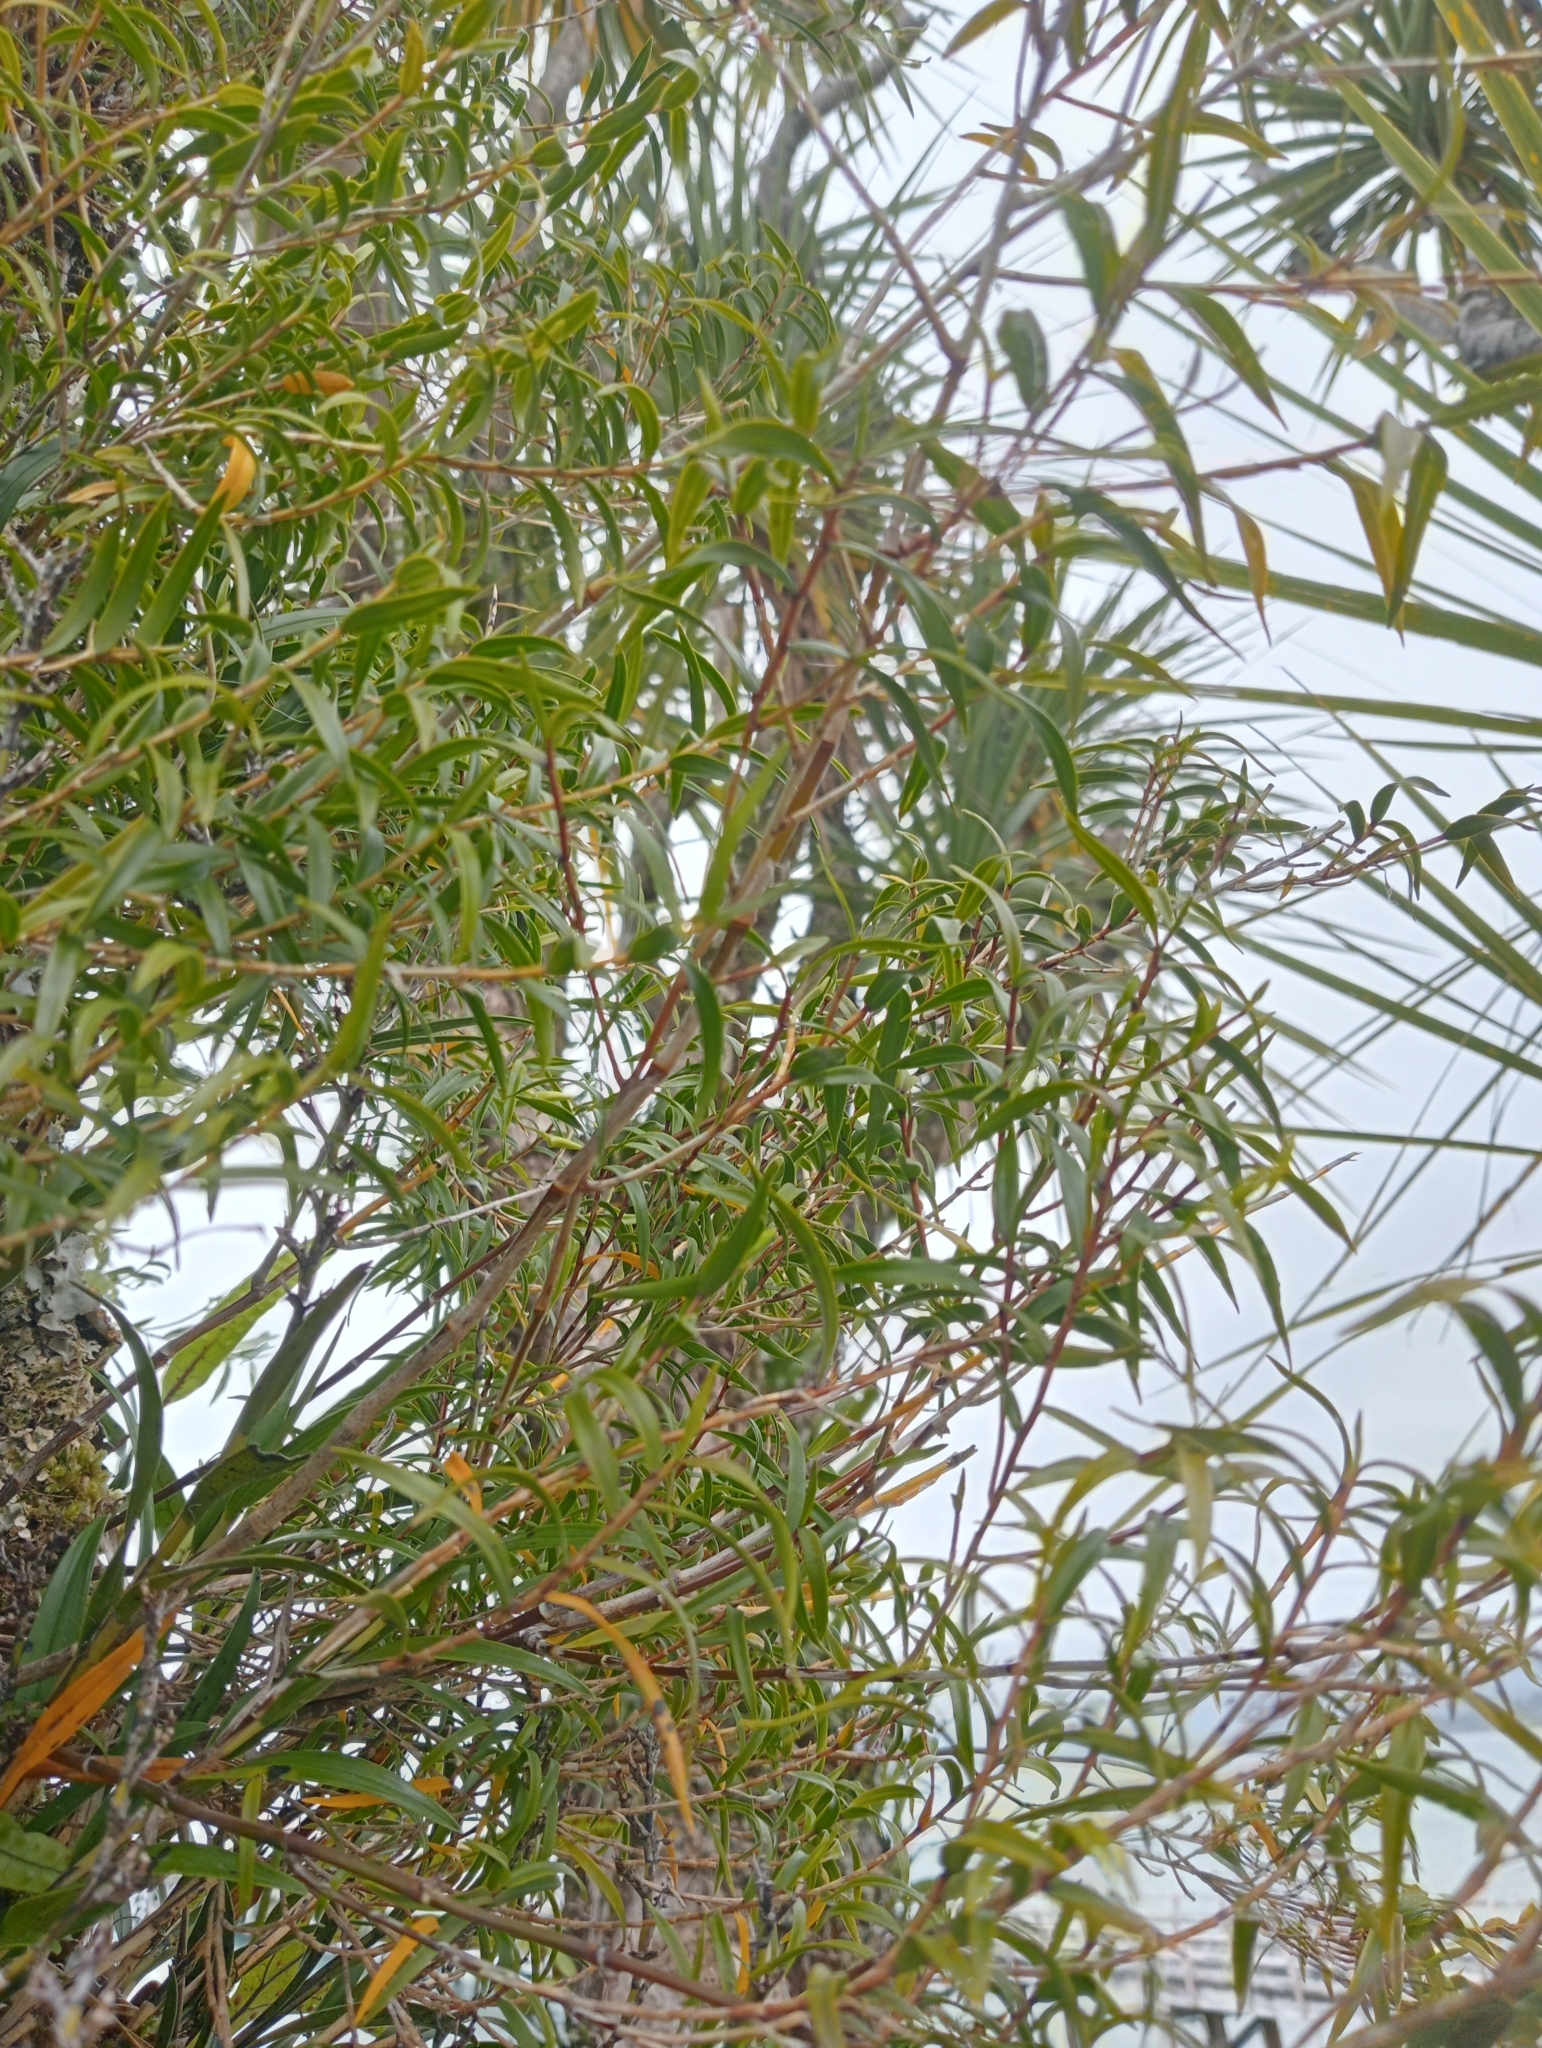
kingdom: Plantae
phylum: Tracheophyta
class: Liliopsida
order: Asparagales
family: Orchidaceae
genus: Dendrobium
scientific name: Dendrobium cunninghamii
